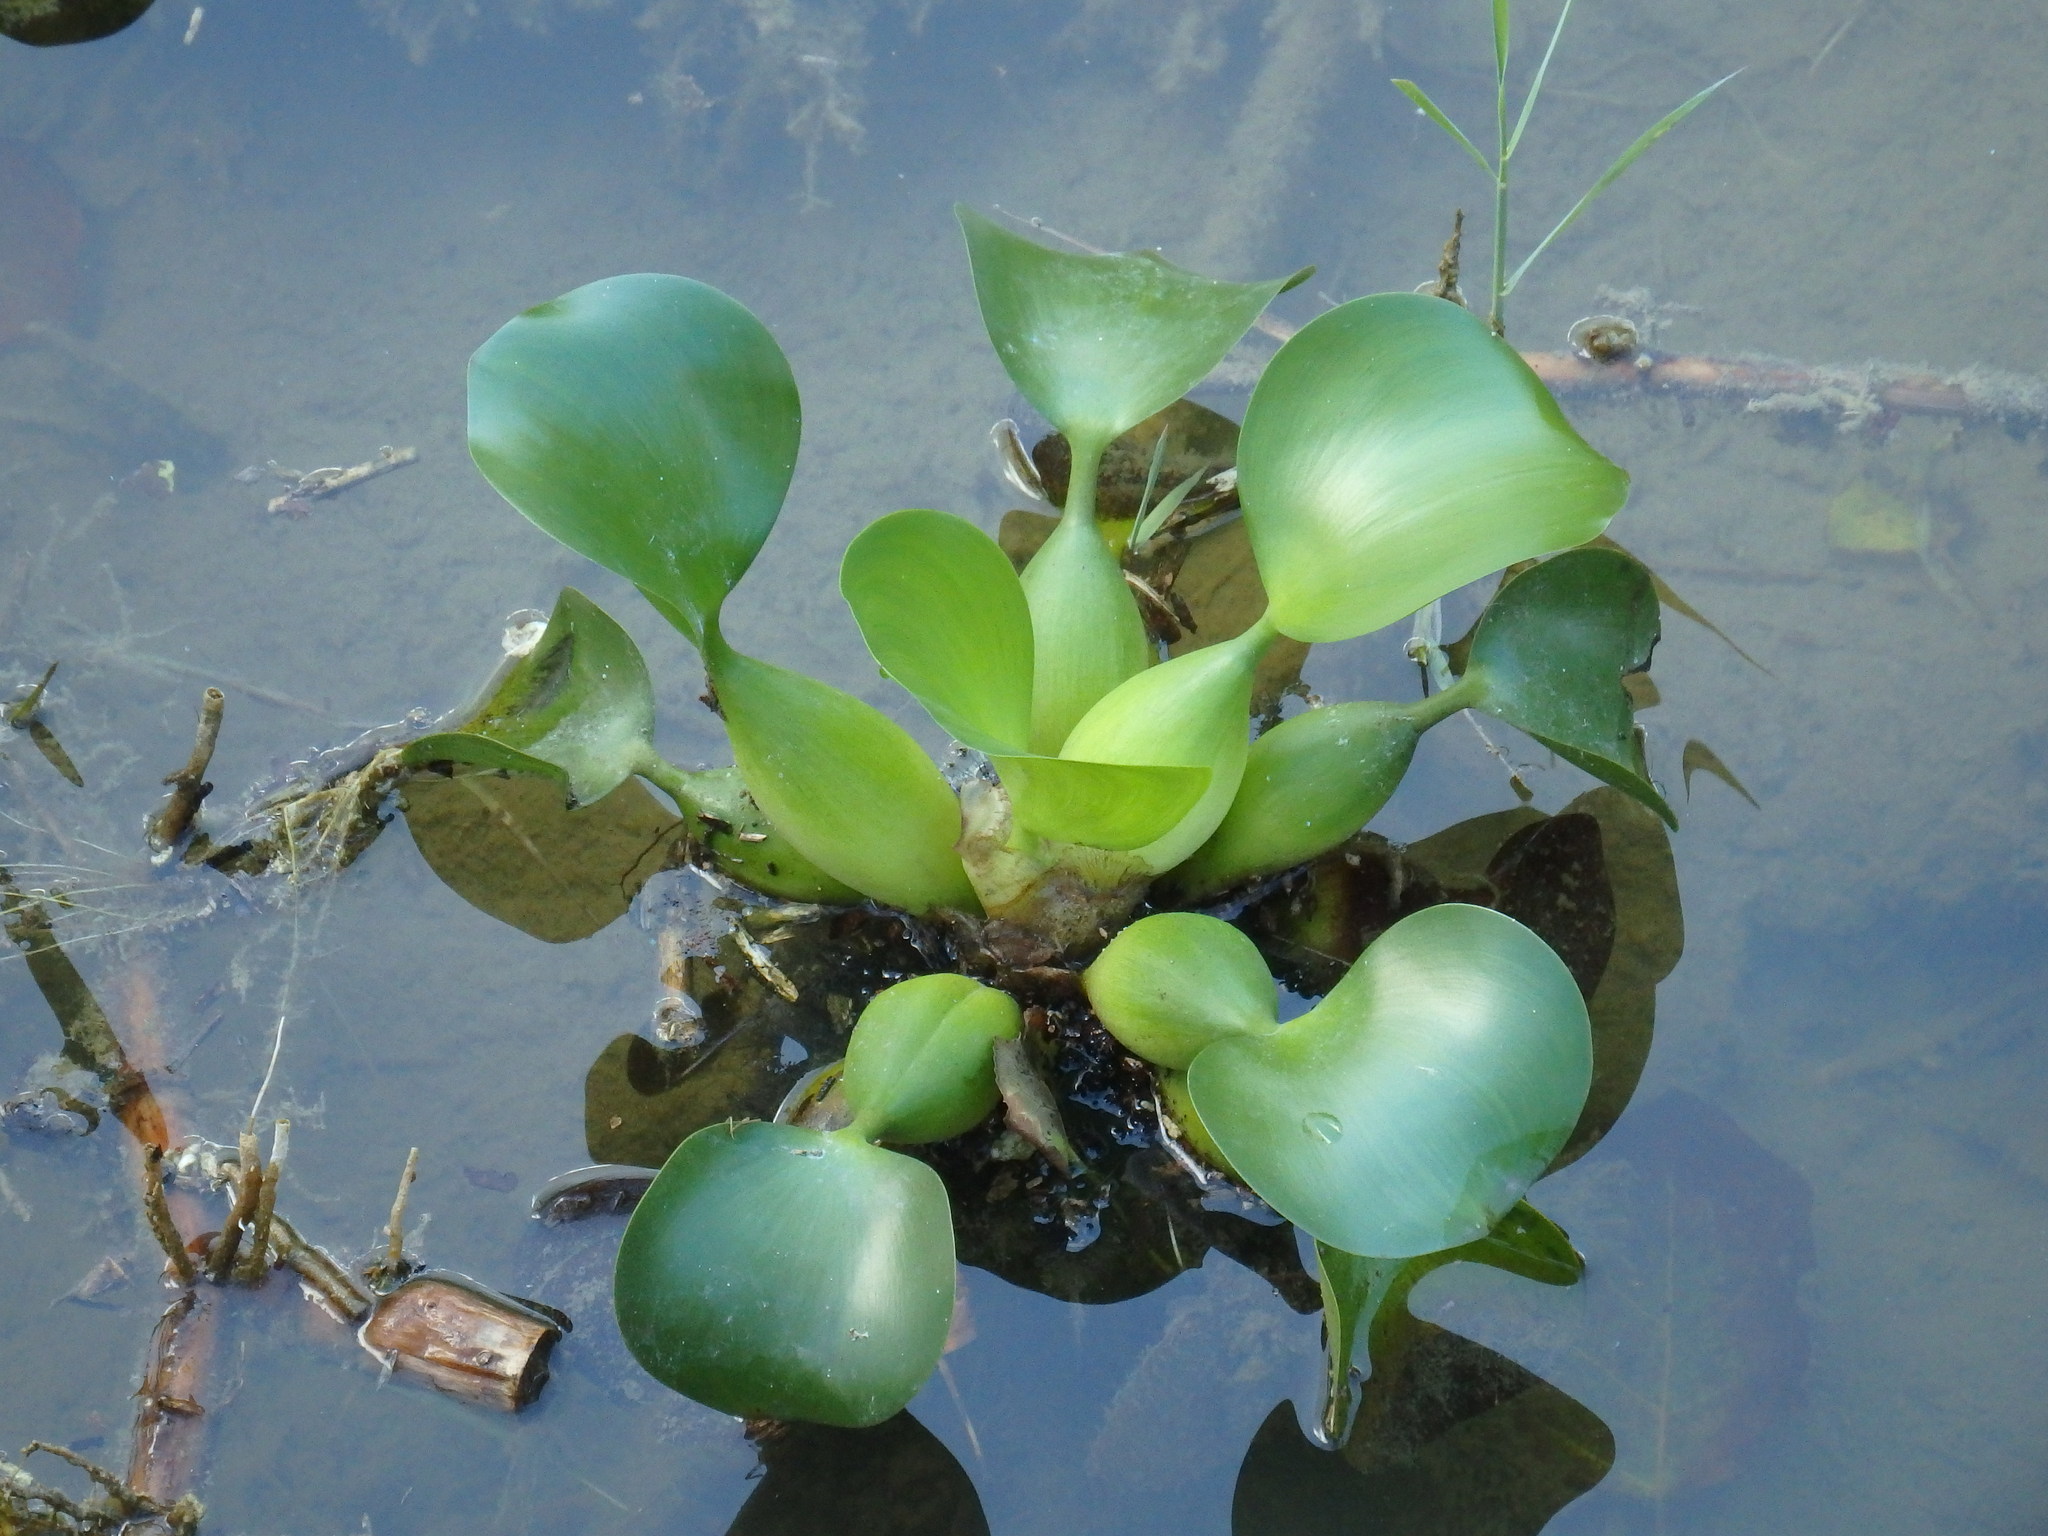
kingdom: Plantae
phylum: Tracheophyta
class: Liliopsida
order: Commelinales
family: Pontederiaceae
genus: Pontederia
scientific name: Pontederia crassipes
